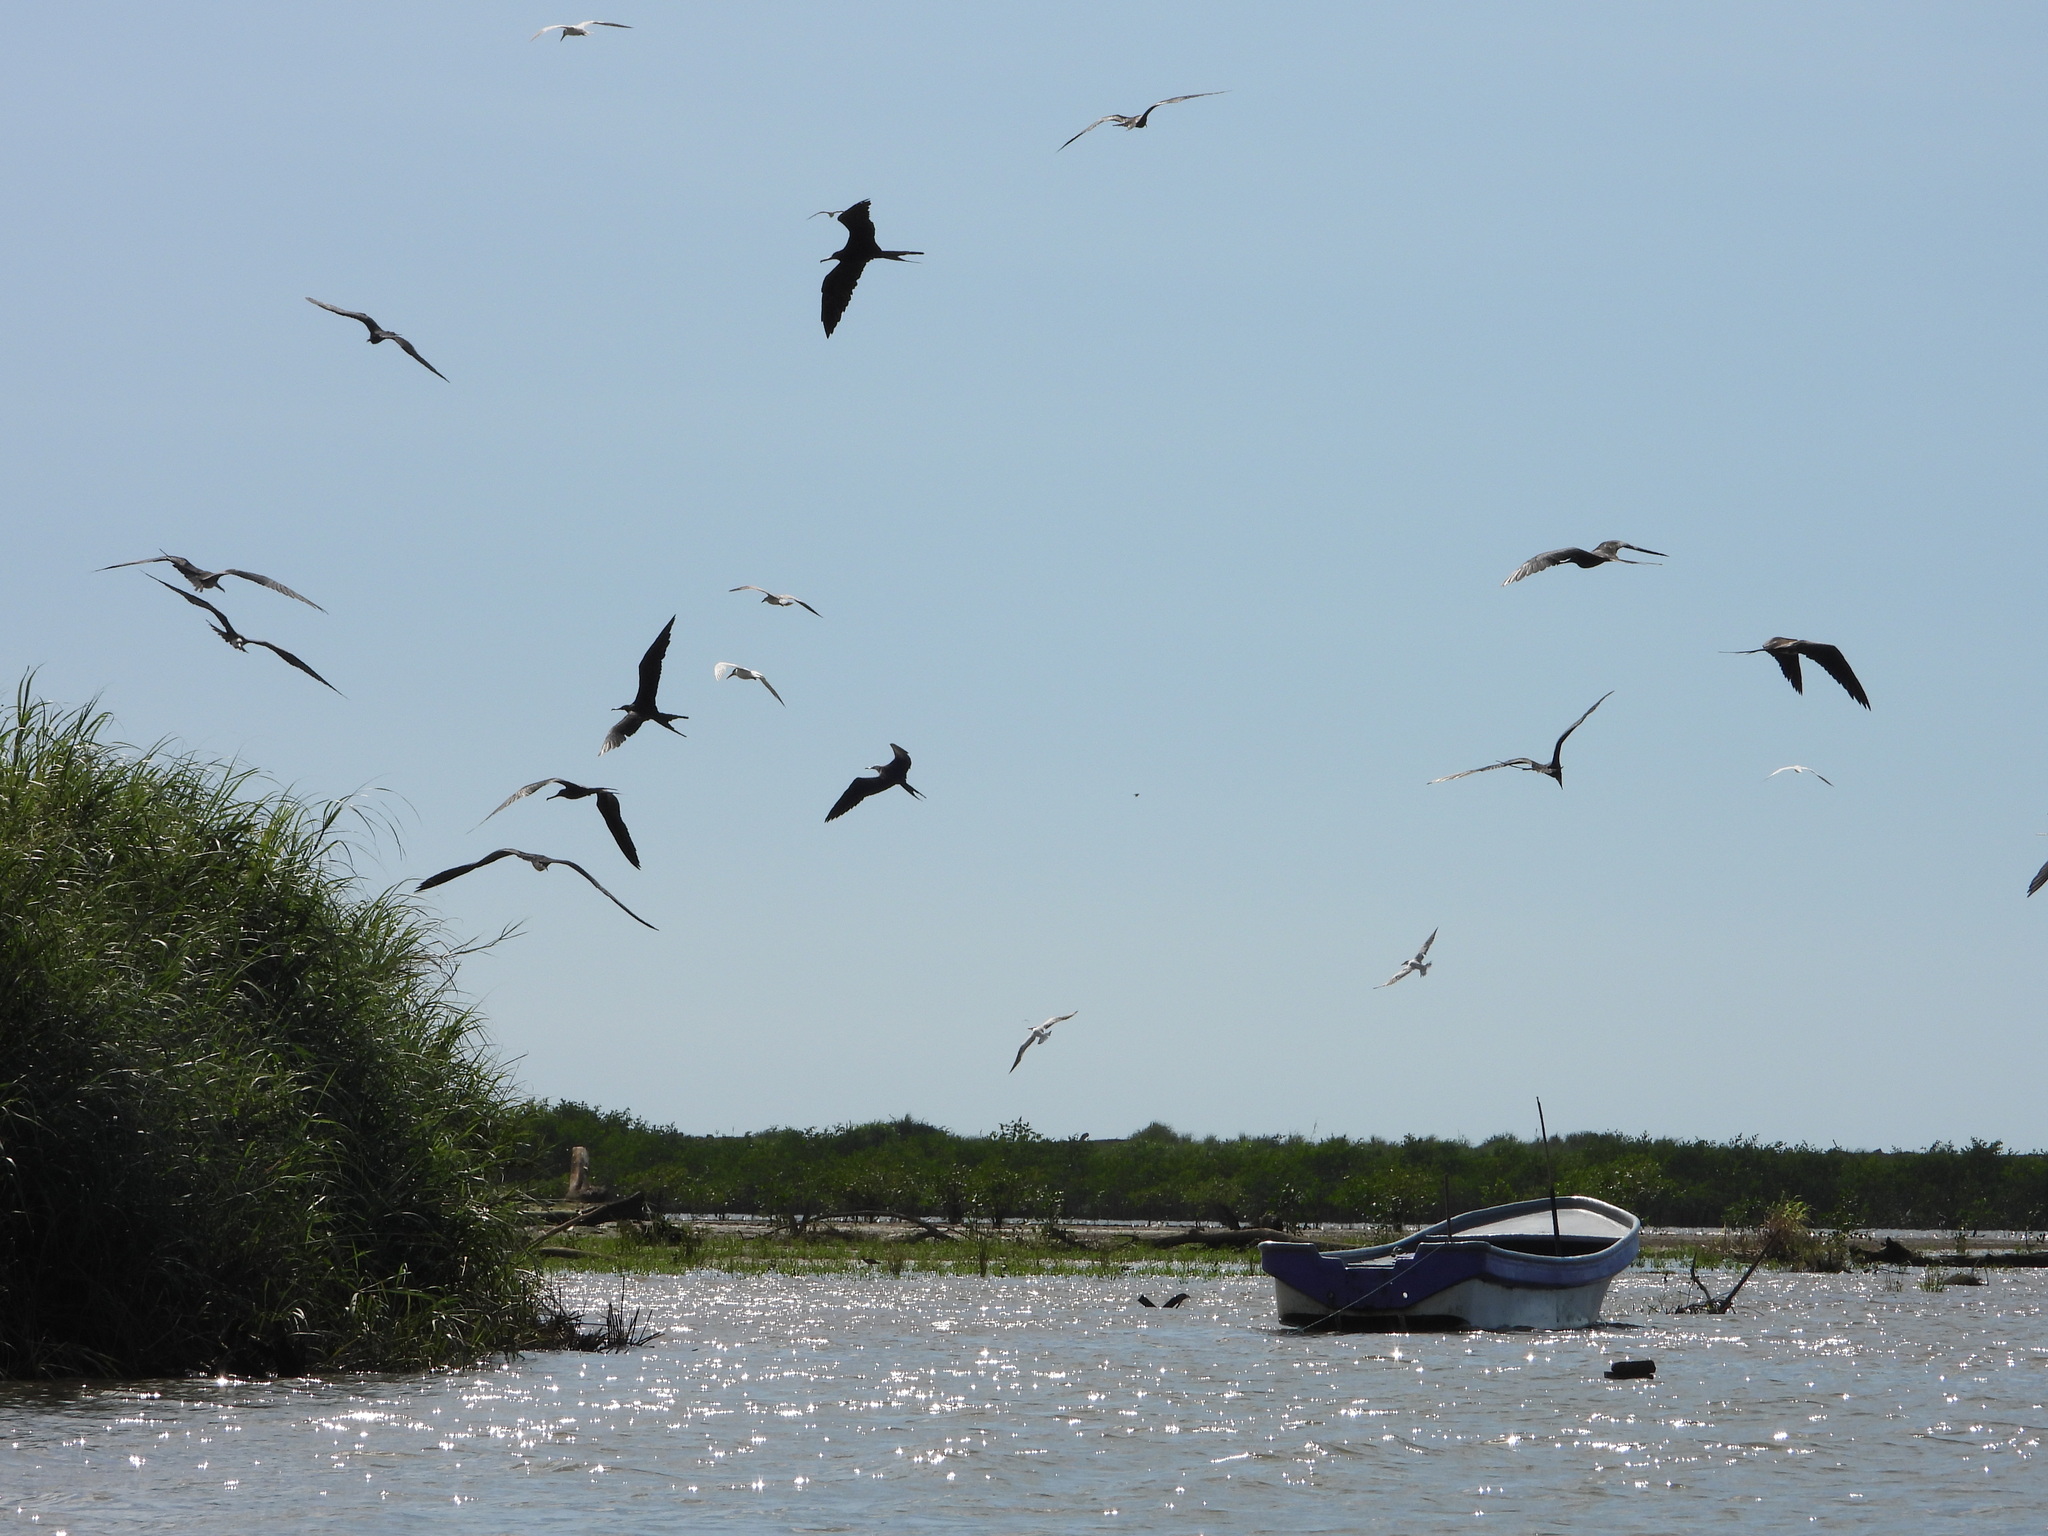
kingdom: Animalia
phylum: Chordata
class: Aves
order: Suliformes
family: Fregatidae
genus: Fregata
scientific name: Fregata magnificens
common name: Magnificent frigatebird
